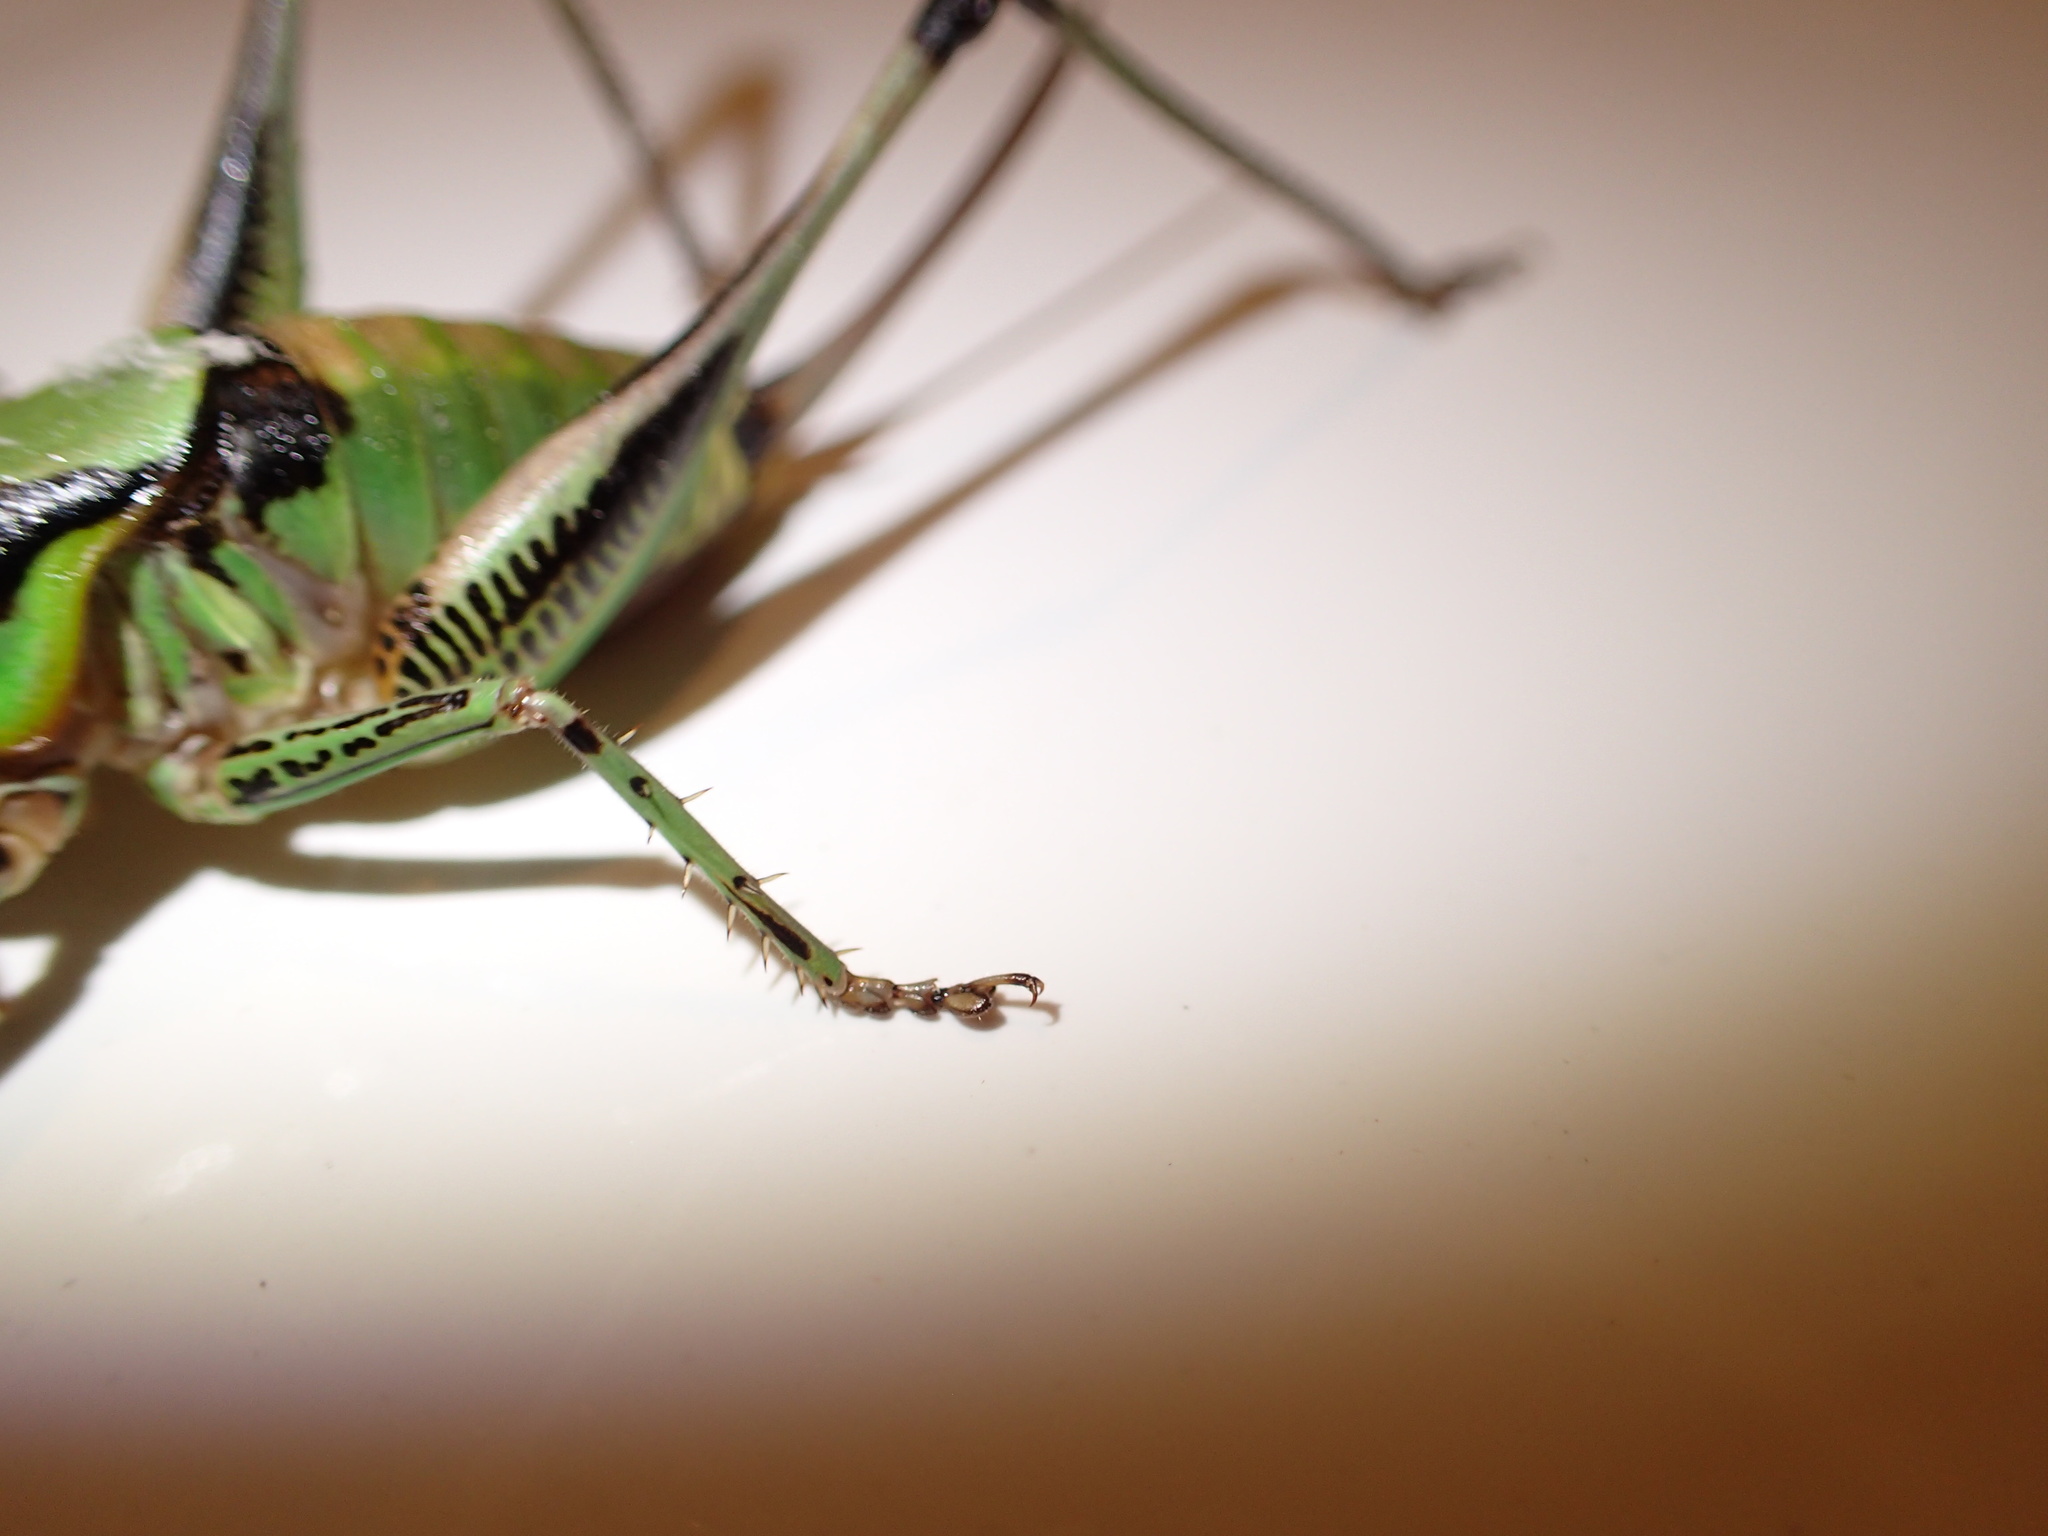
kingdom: Animalia
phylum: Arthropoda
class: Insecta
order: Orthoptera
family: Tettigoniidae
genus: Eupholidoptera
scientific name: Eupholidoptera schmidti
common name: Schmidt's marbled bush-cricket
